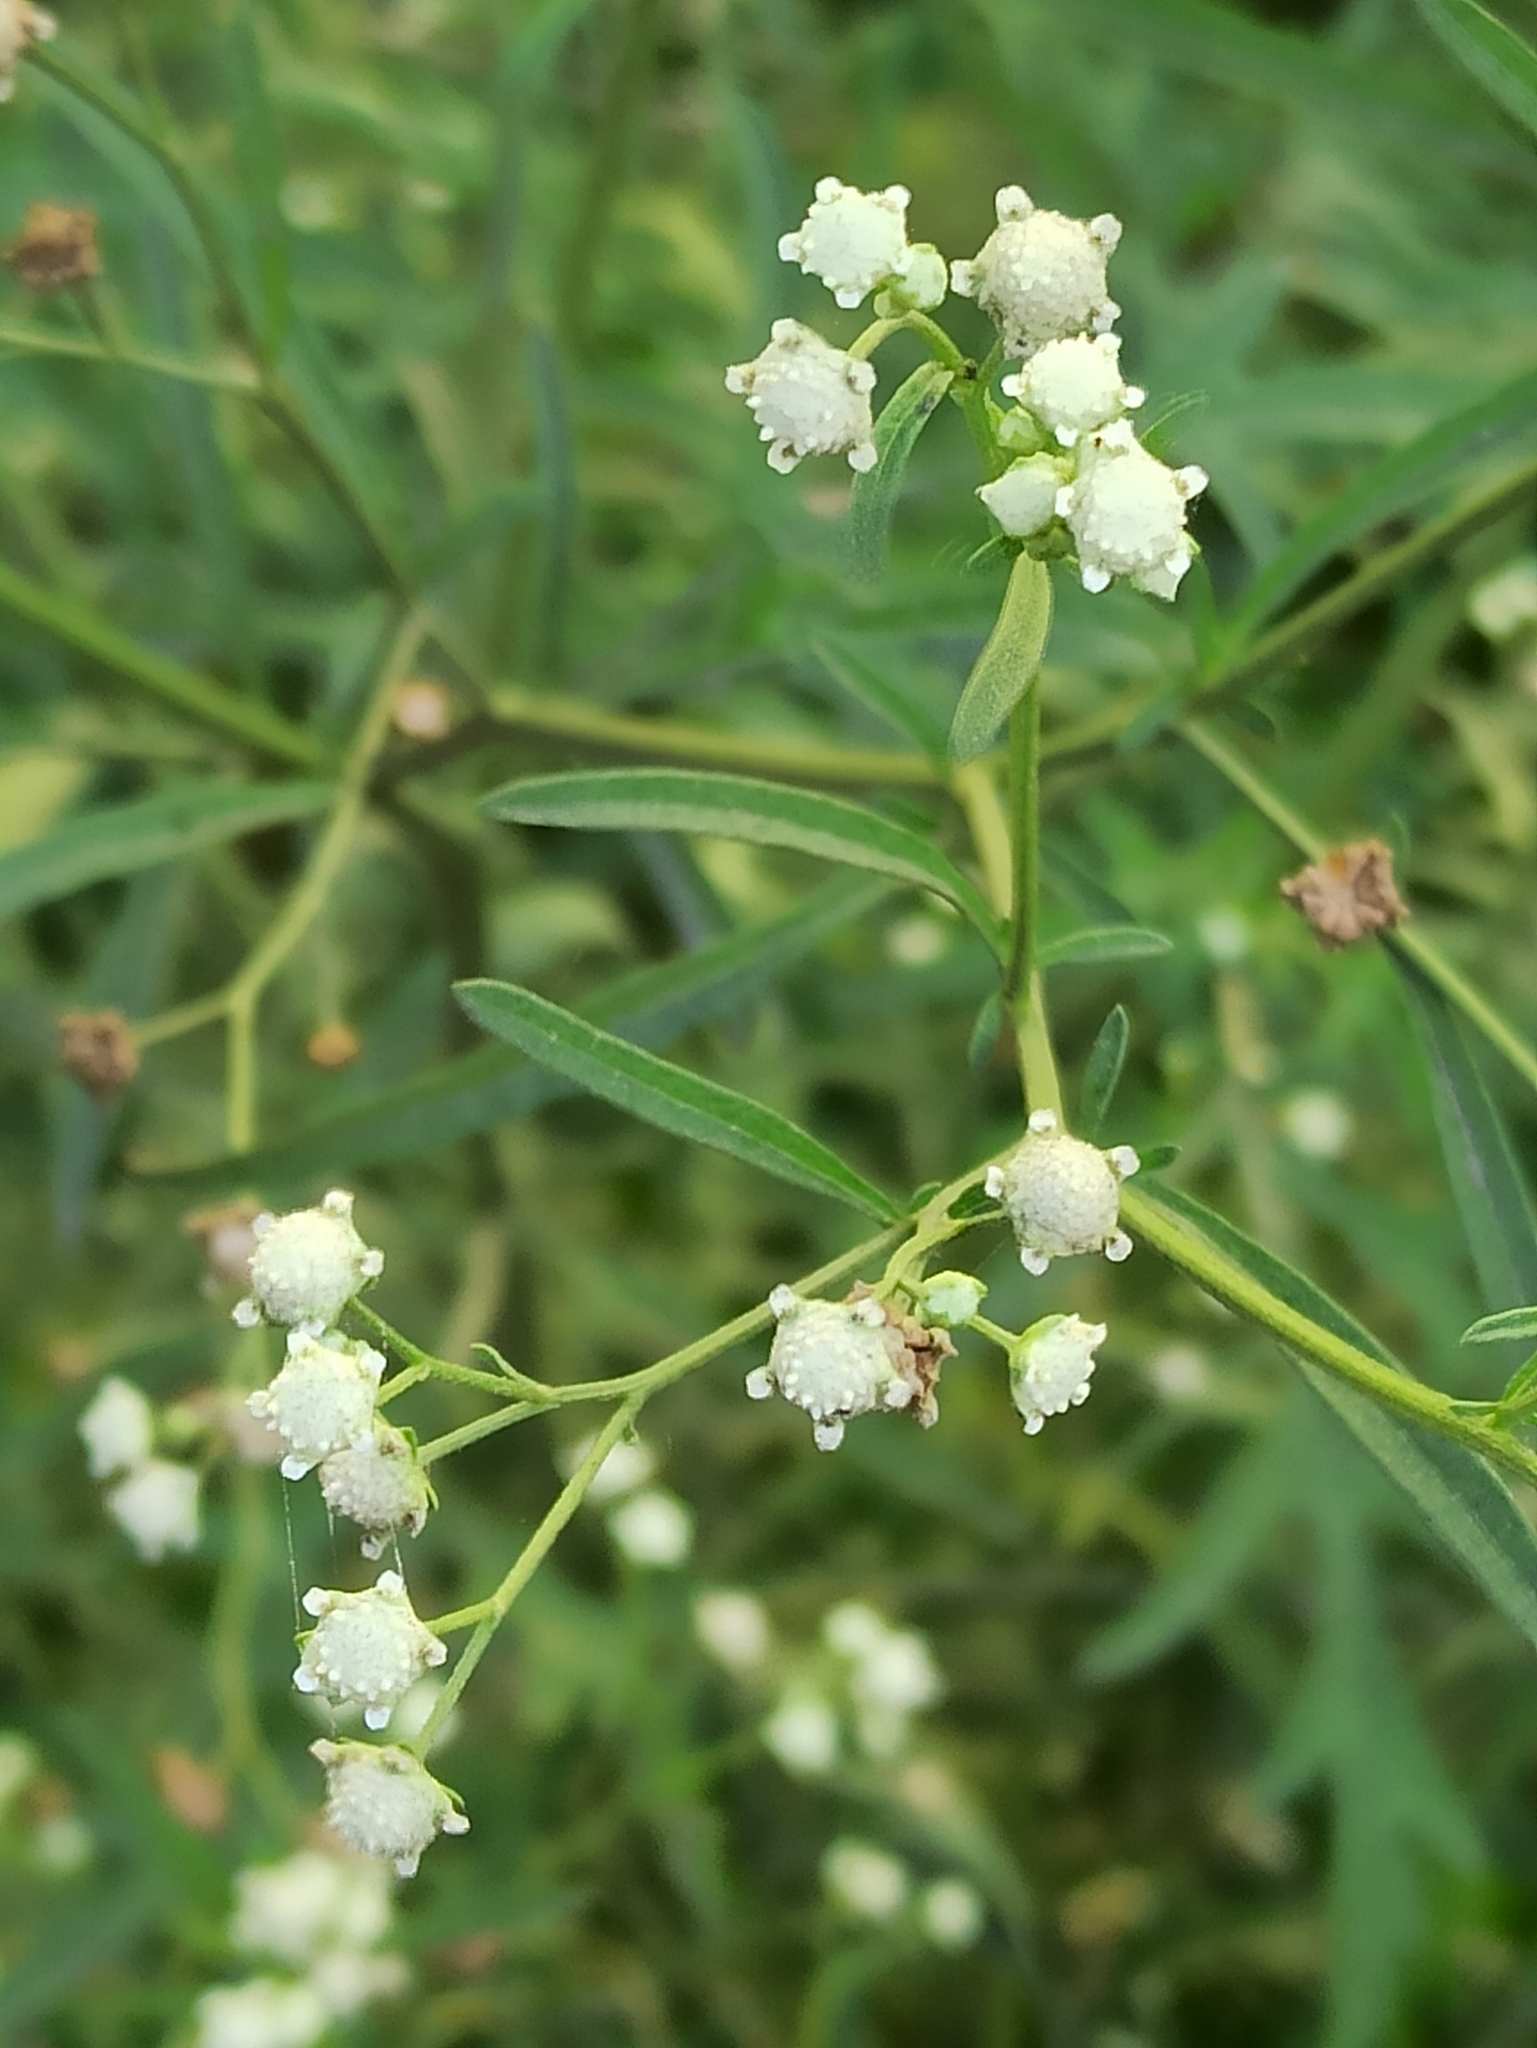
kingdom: Plantae
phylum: Tracheophyta
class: Magnoliopsida
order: Asterales
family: Asteraceae
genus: Parthenium
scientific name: Parthenium hysterophorus
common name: Santa maria feverfew
